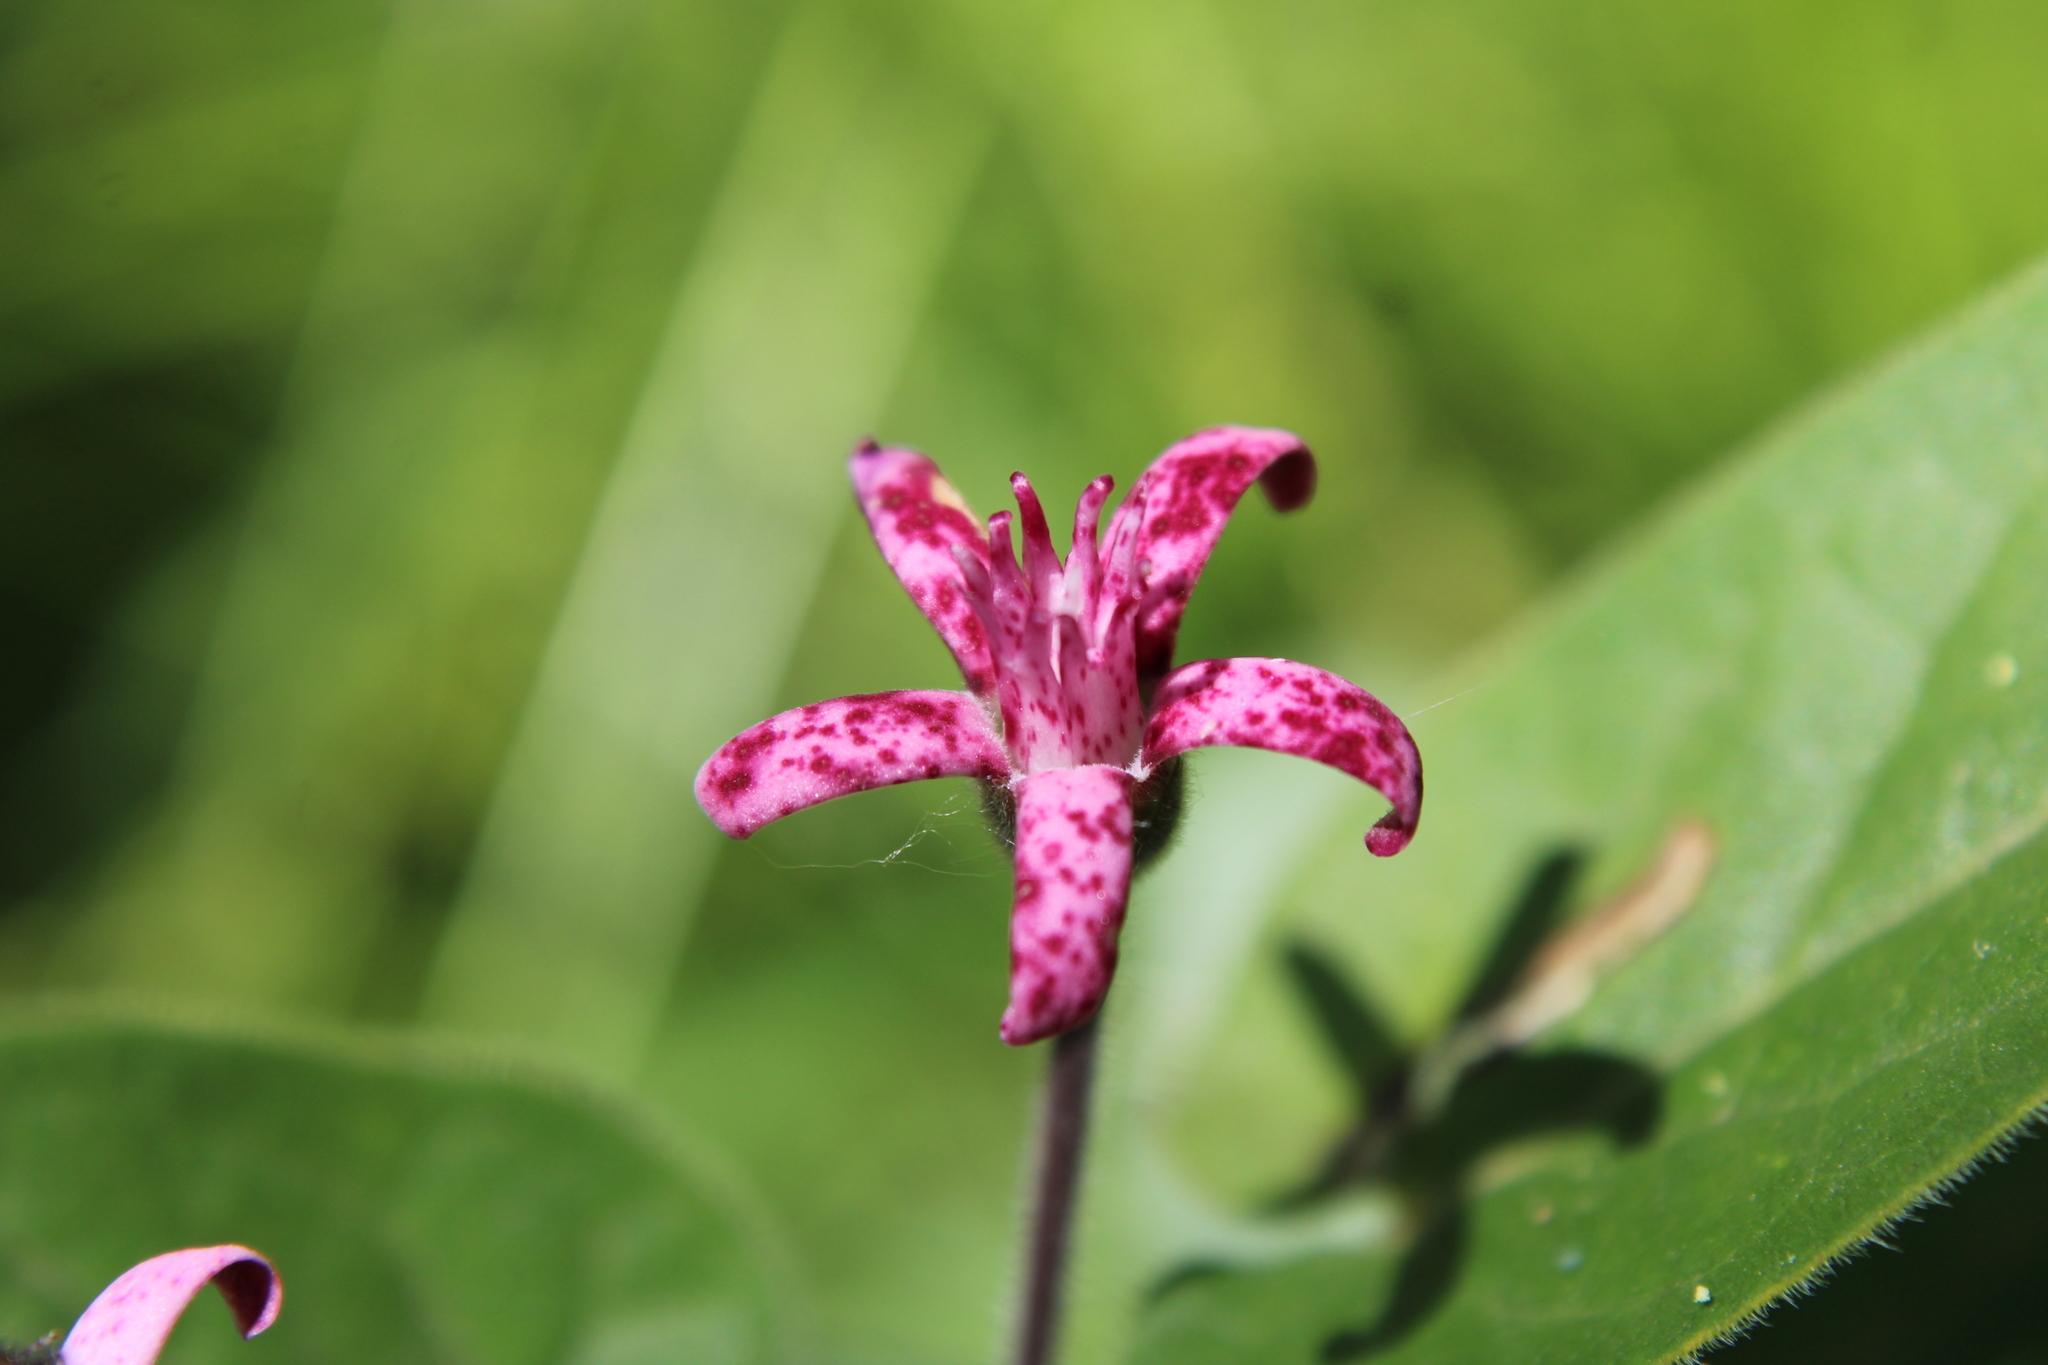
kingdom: Plantae
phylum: Tracheophyta
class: Magnoliopsida
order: Gentianales
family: Apocynaceae
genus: Oxypetalum
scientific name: Oxypetalum solanoides
